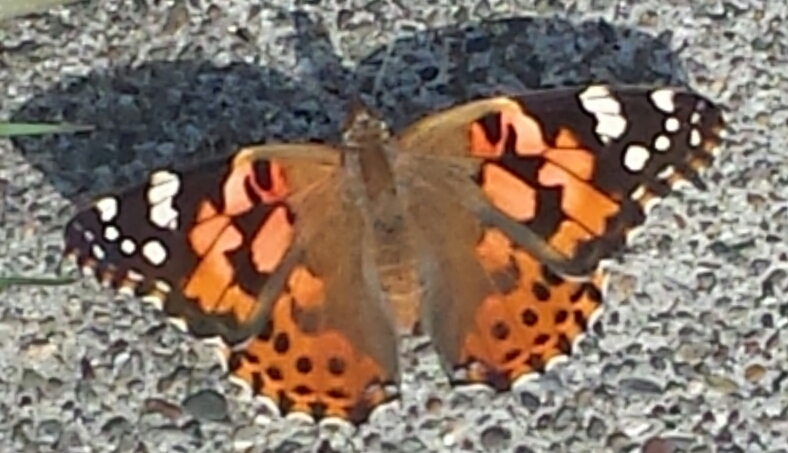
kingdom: Animalia
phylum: Arthropoda
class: Insecta
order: Lepidoptera
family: Nymphalidae
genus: Vanessa
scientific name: Vanessa cardui
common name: Painted lady
